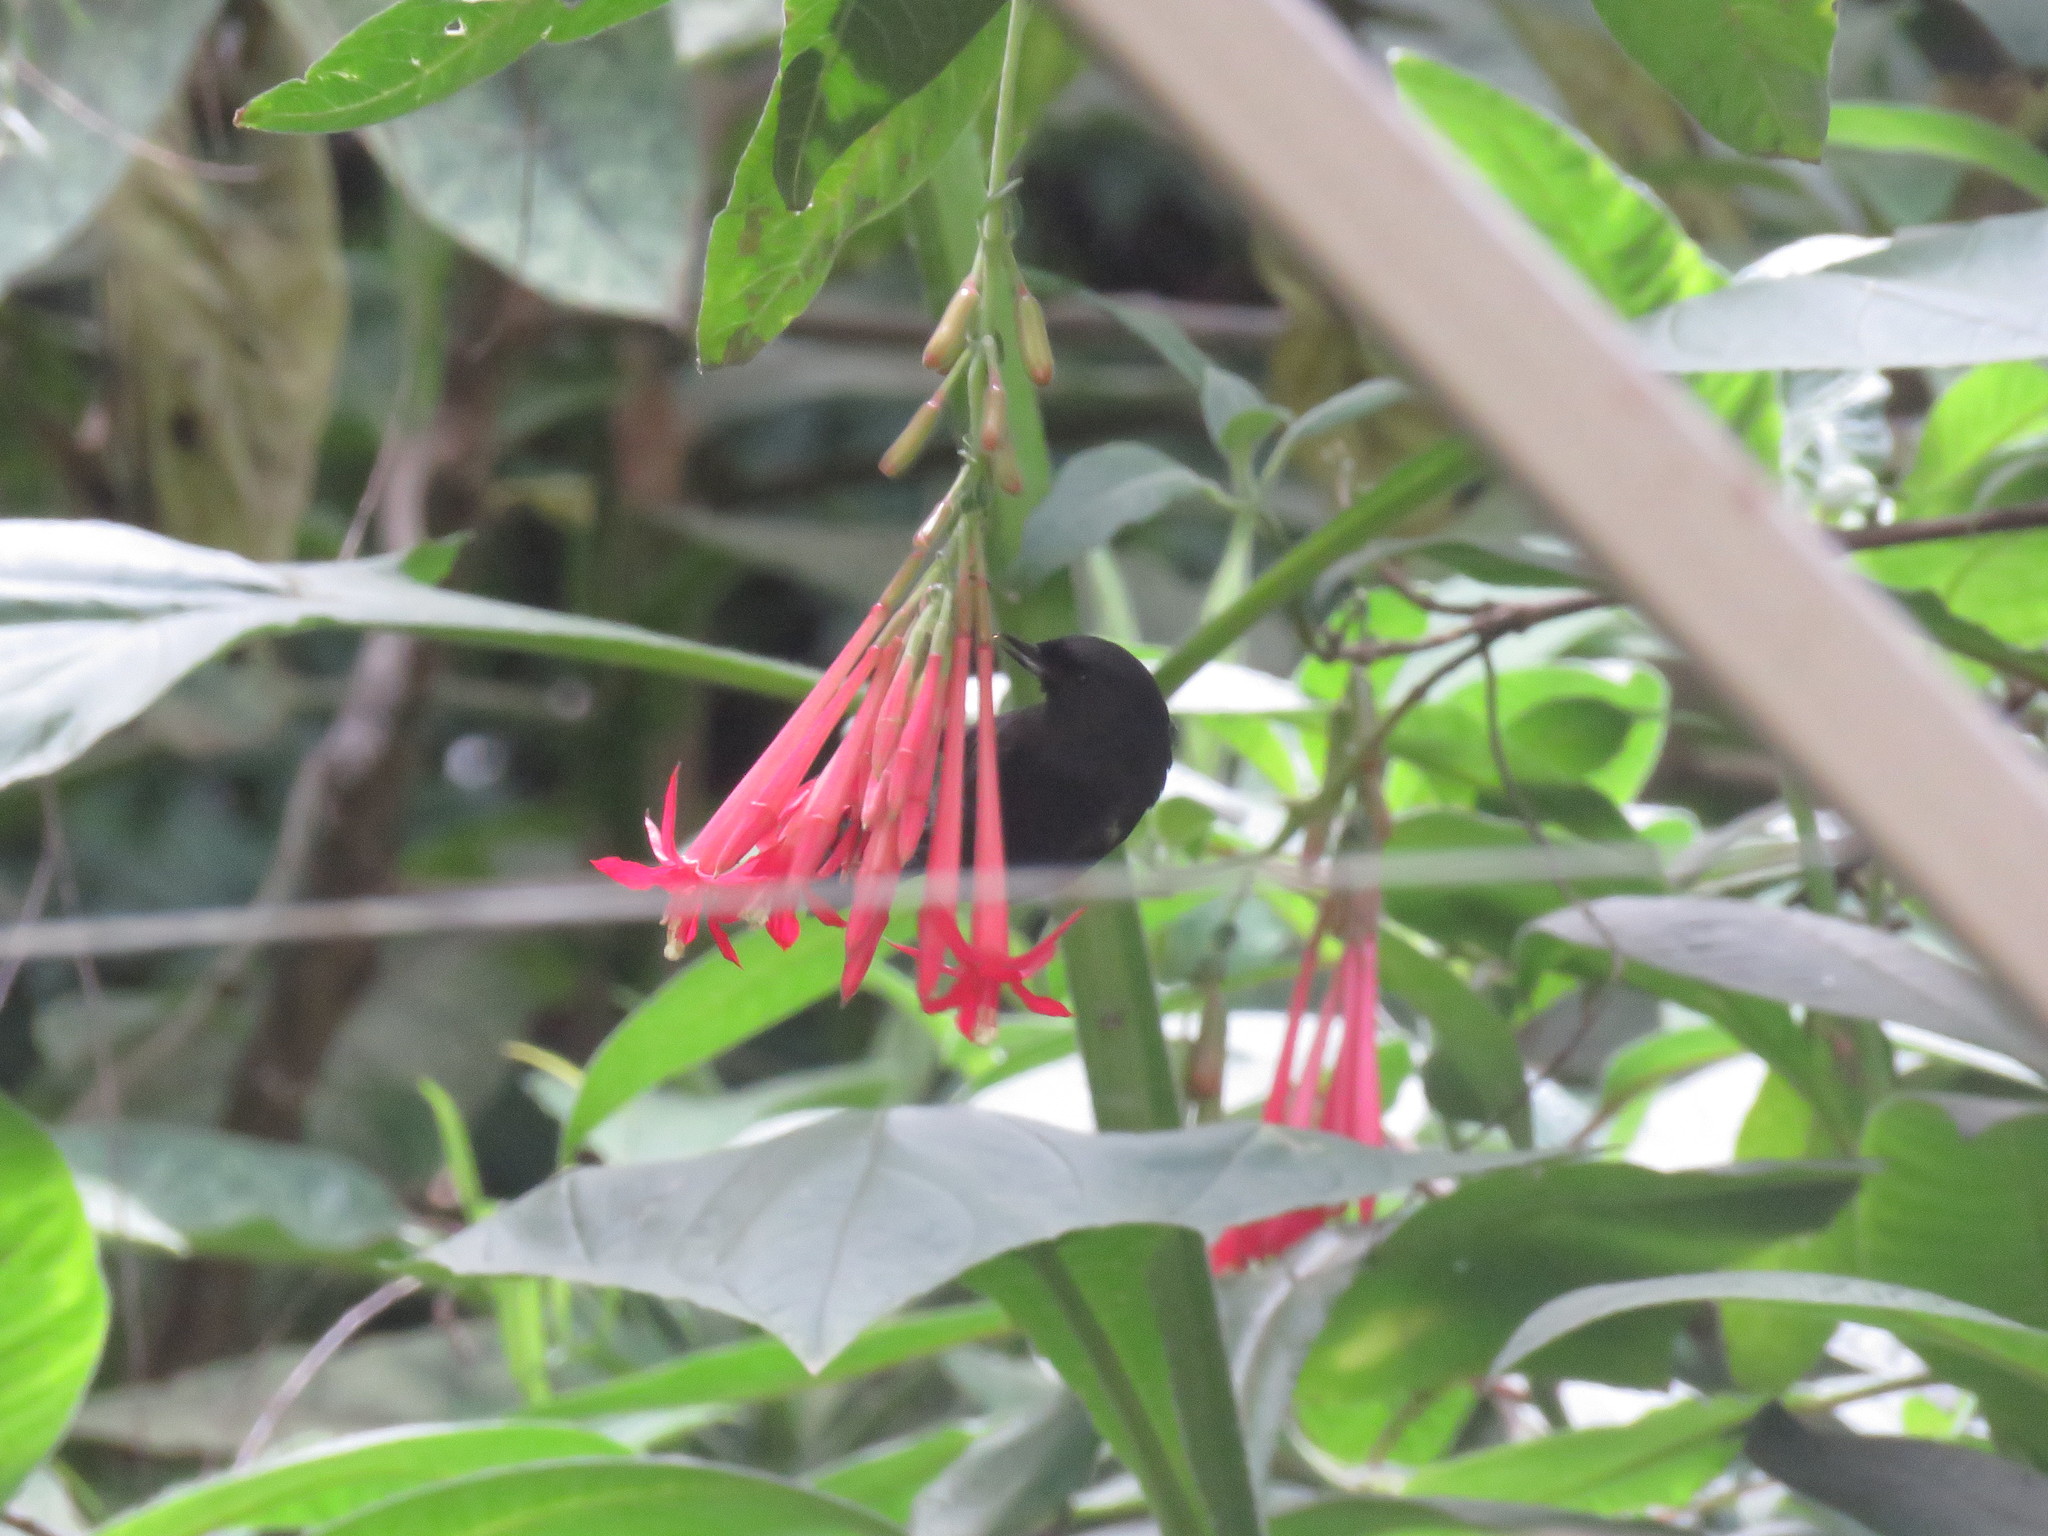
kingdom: Animalia
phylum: Chordata
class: Aves
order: Passeriformes
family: Thraupidae
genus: Diglossa
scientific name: Diglossa humeralis
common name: Black flowerpiercer
